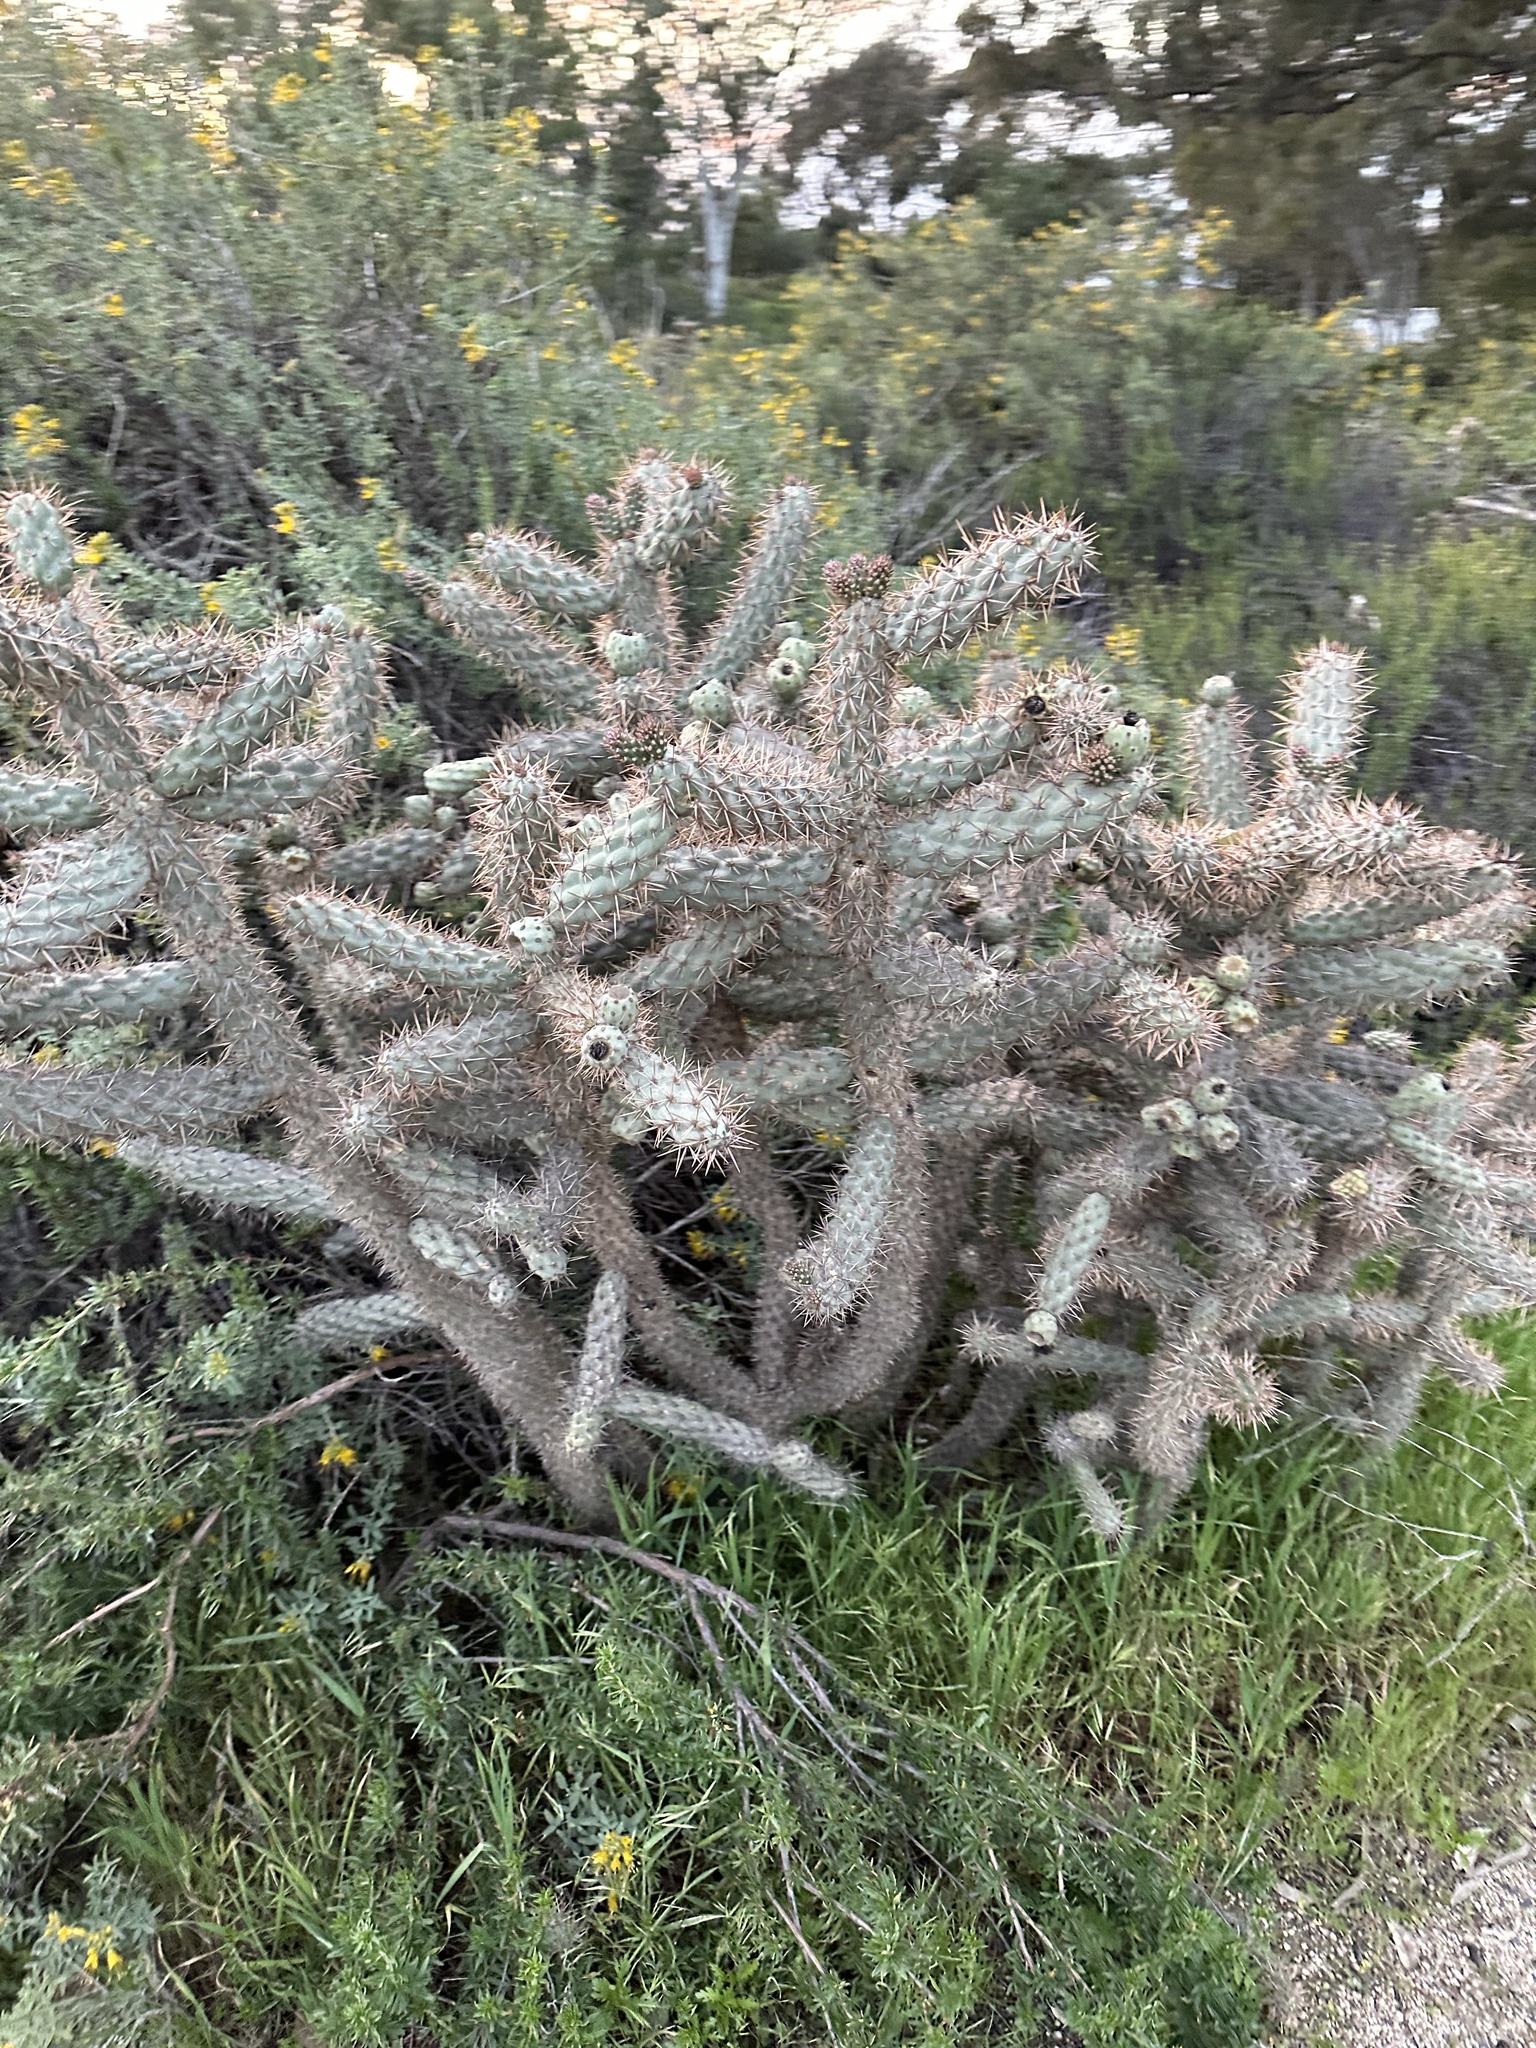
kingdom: Plantae
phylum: Tracheophyta
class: Magnoliopsida
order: Caryophyllales
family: Cactaceae
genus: Cylindropuntia
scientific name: Cylindropuntia prolifera
